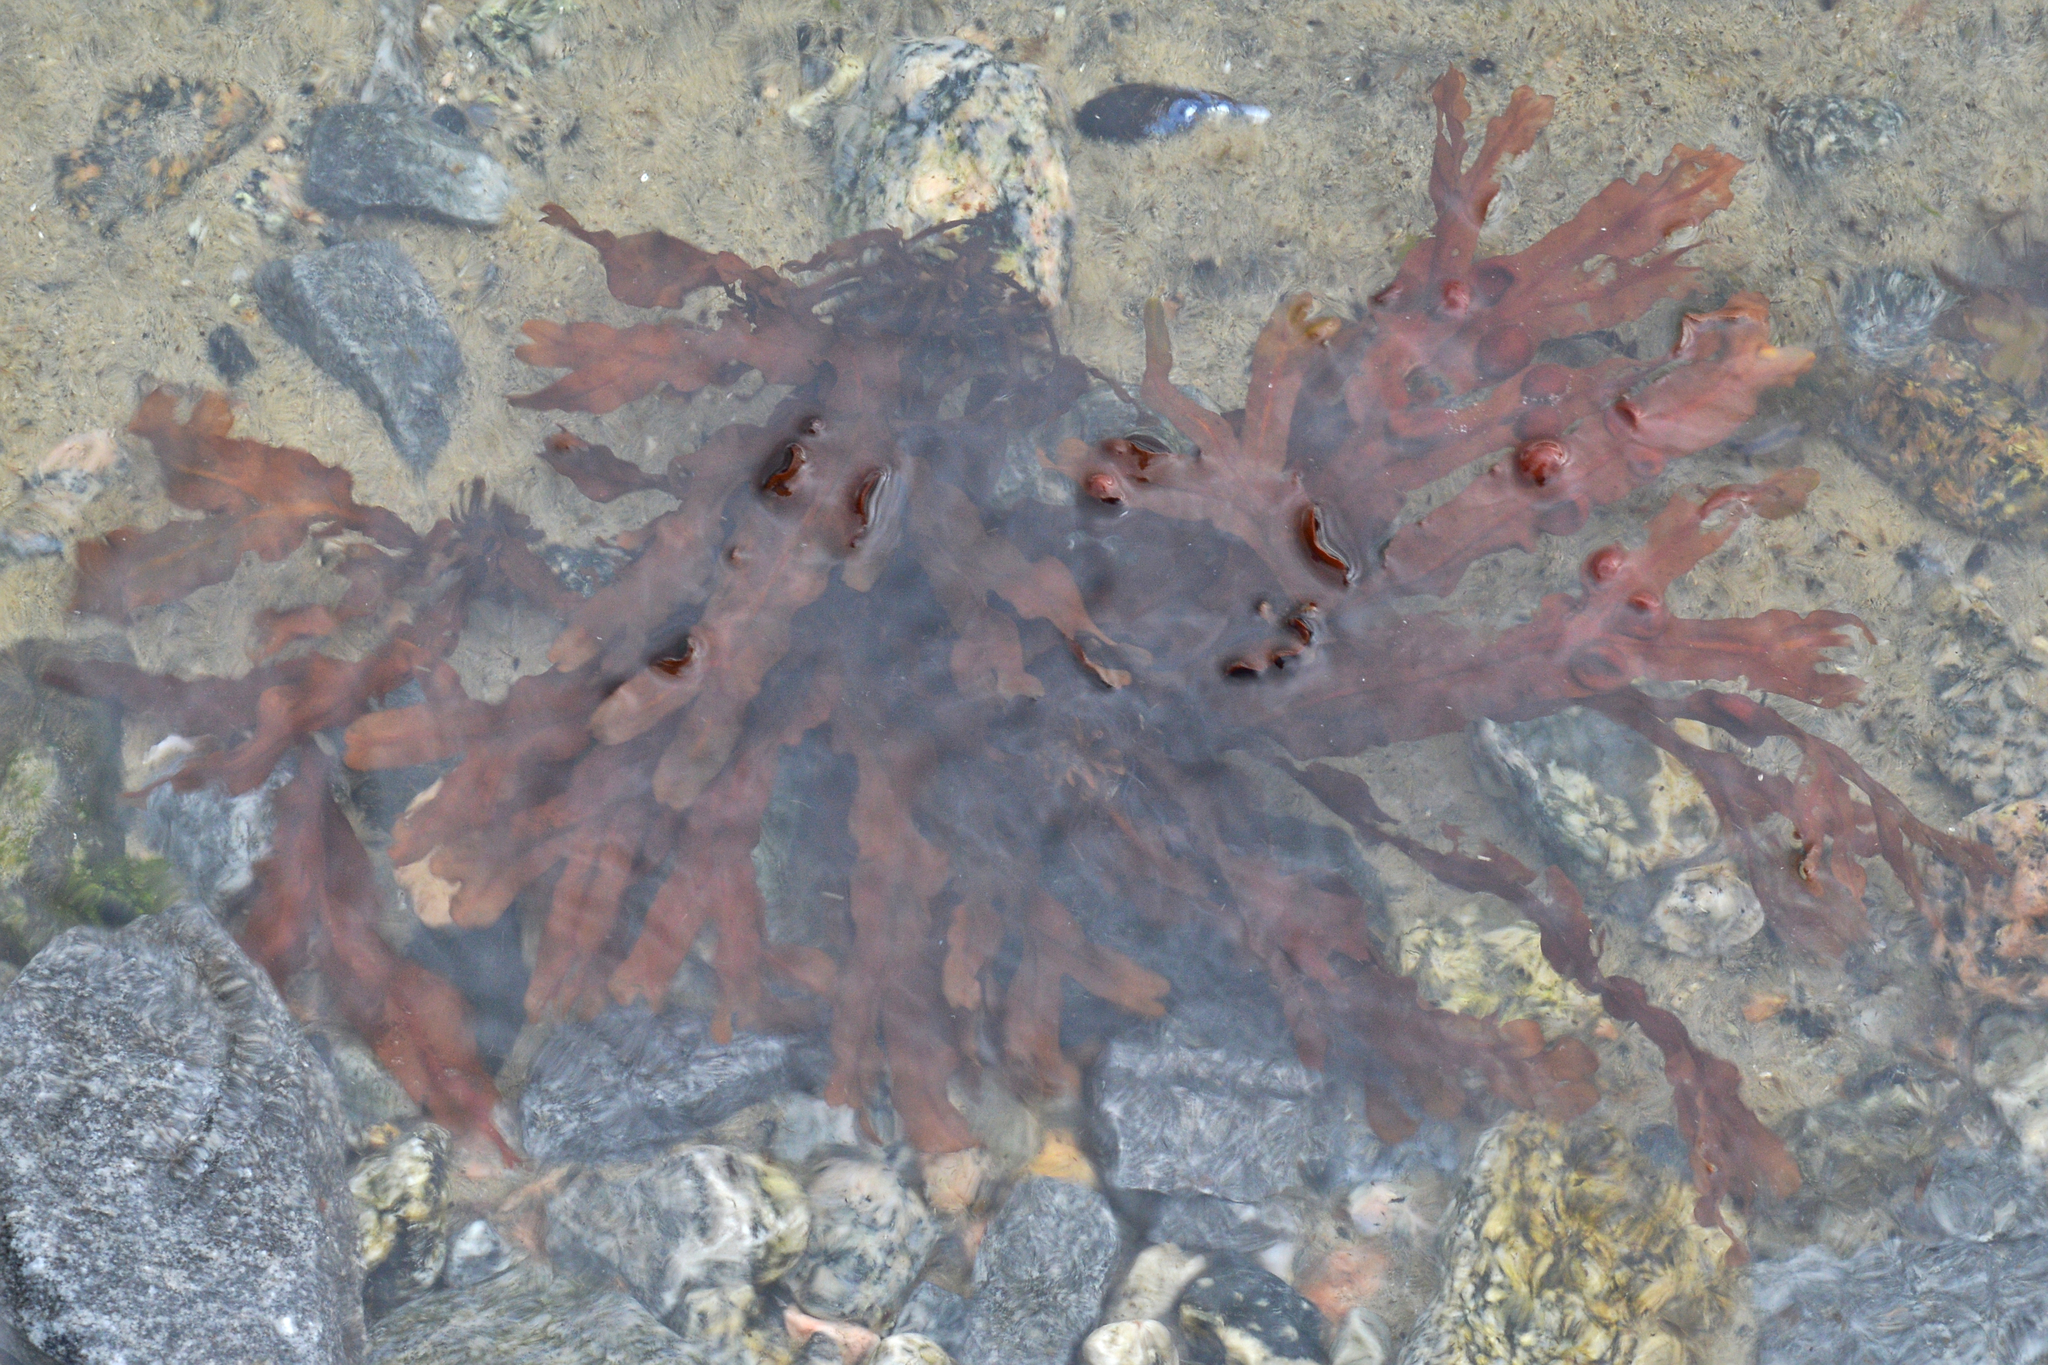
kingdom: Chromista
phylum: Ochrophyta
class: Phaeophyceae
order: Fucales
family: Fucaceae
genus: Fucus
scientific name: Fucus vesiculosus
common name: Bladder wrack
